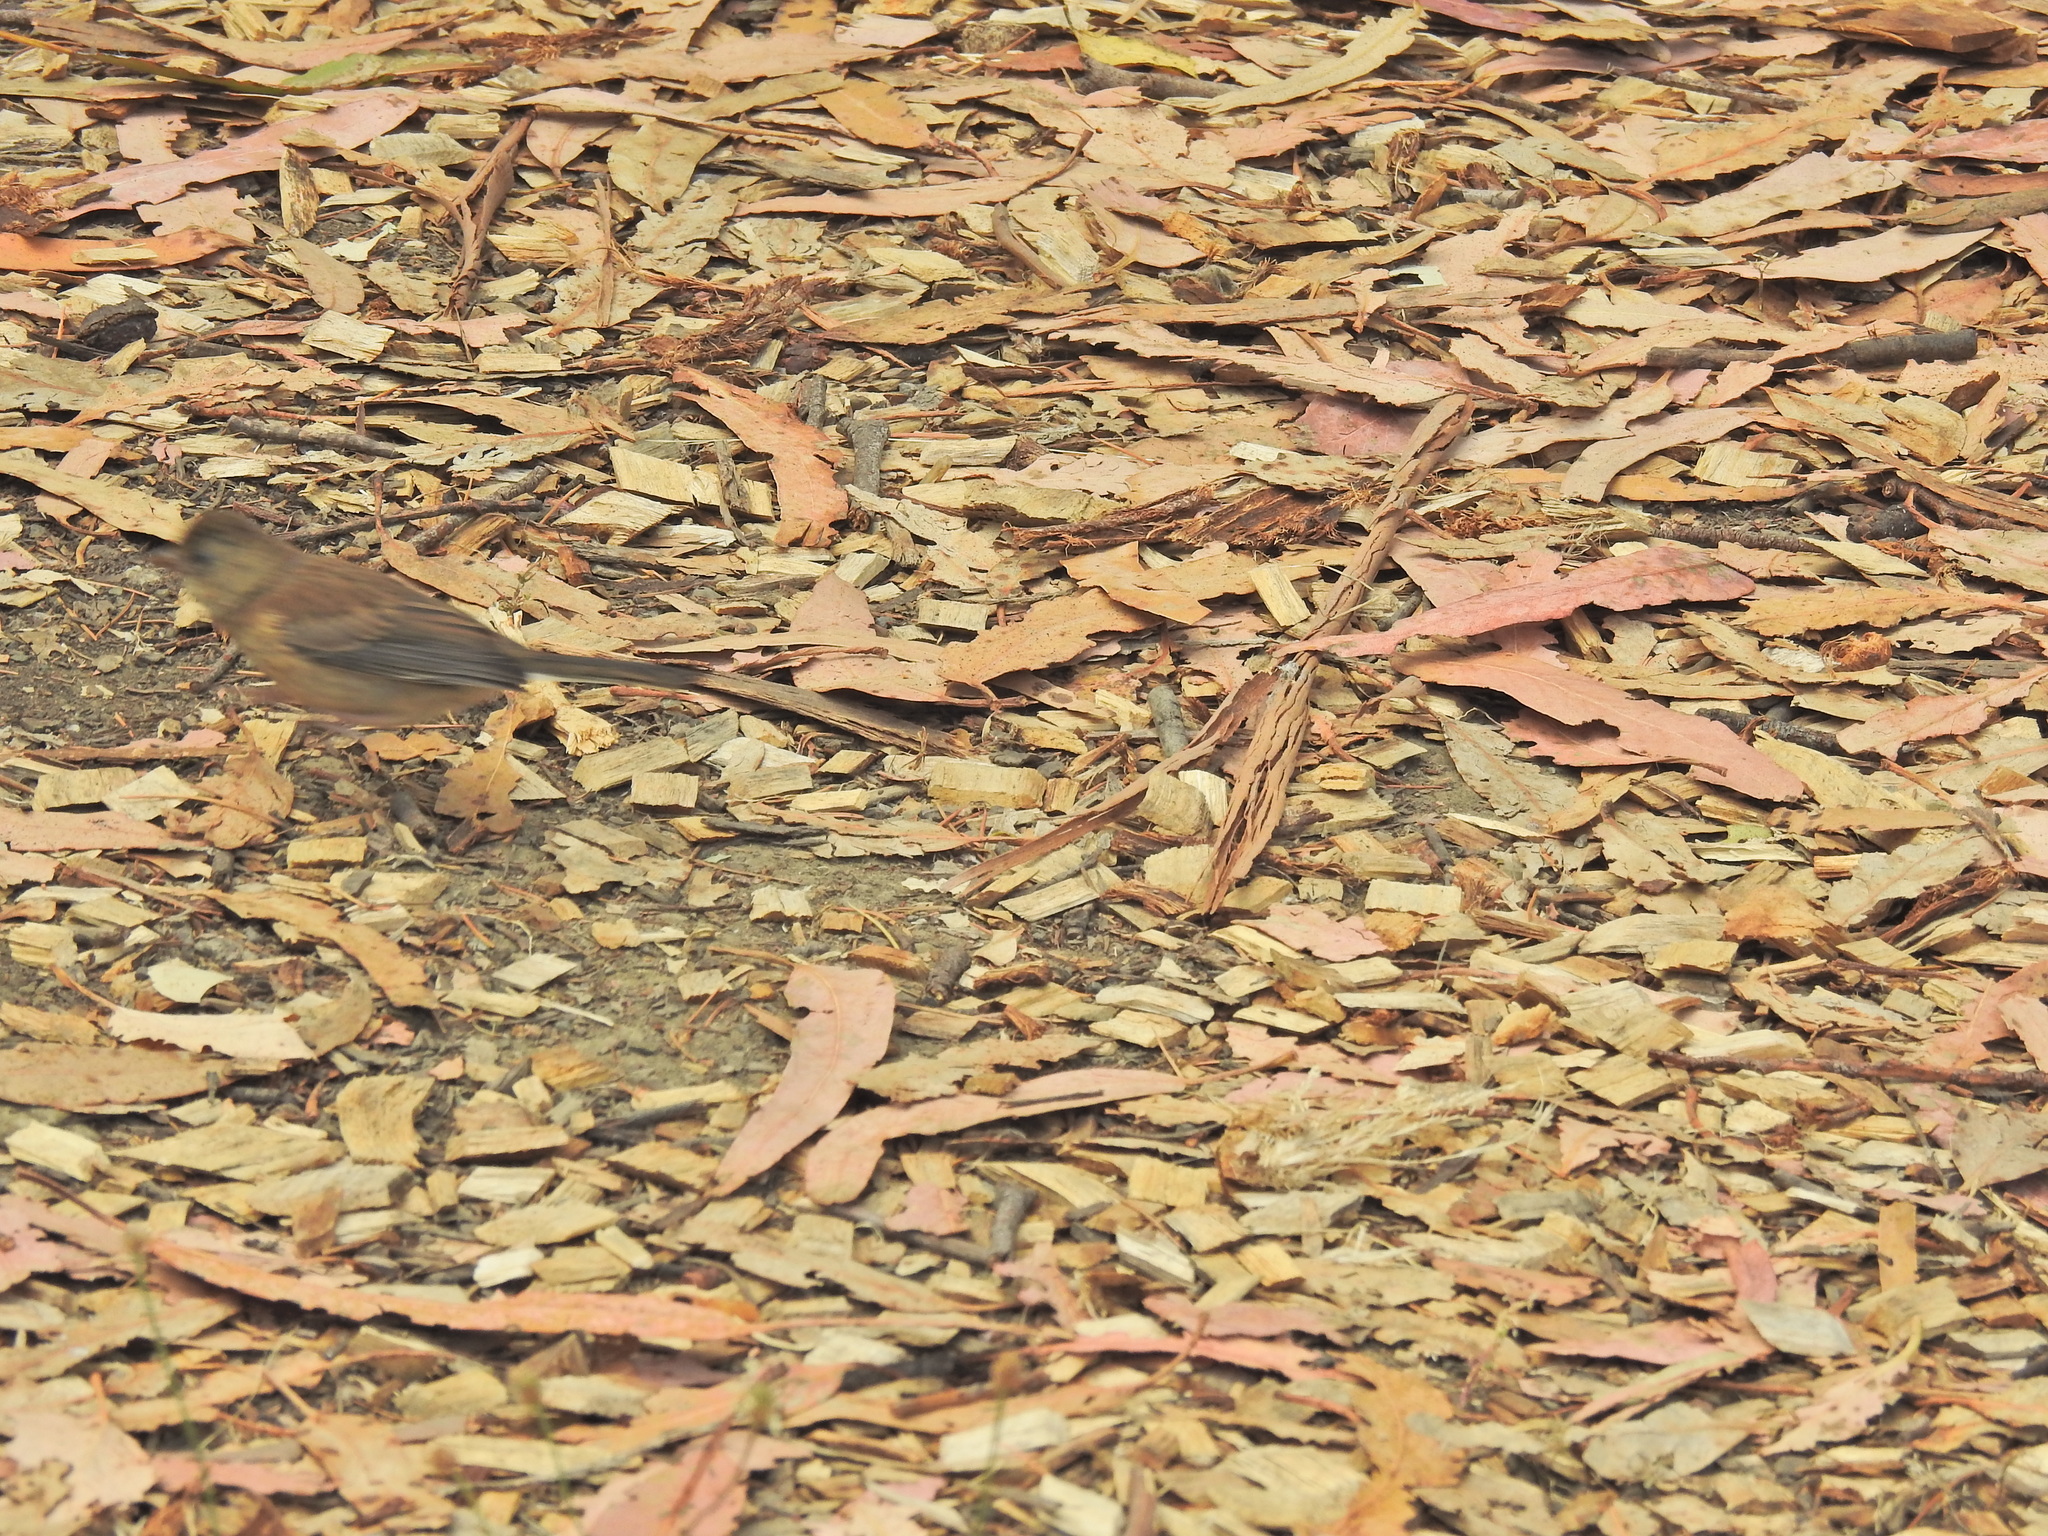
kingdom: Animalia
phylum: Chordata
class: Aves
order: Passeriformes
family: Passerellidae
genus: Junco
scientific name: Junco hyemalis
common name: Dark-eyed junco
